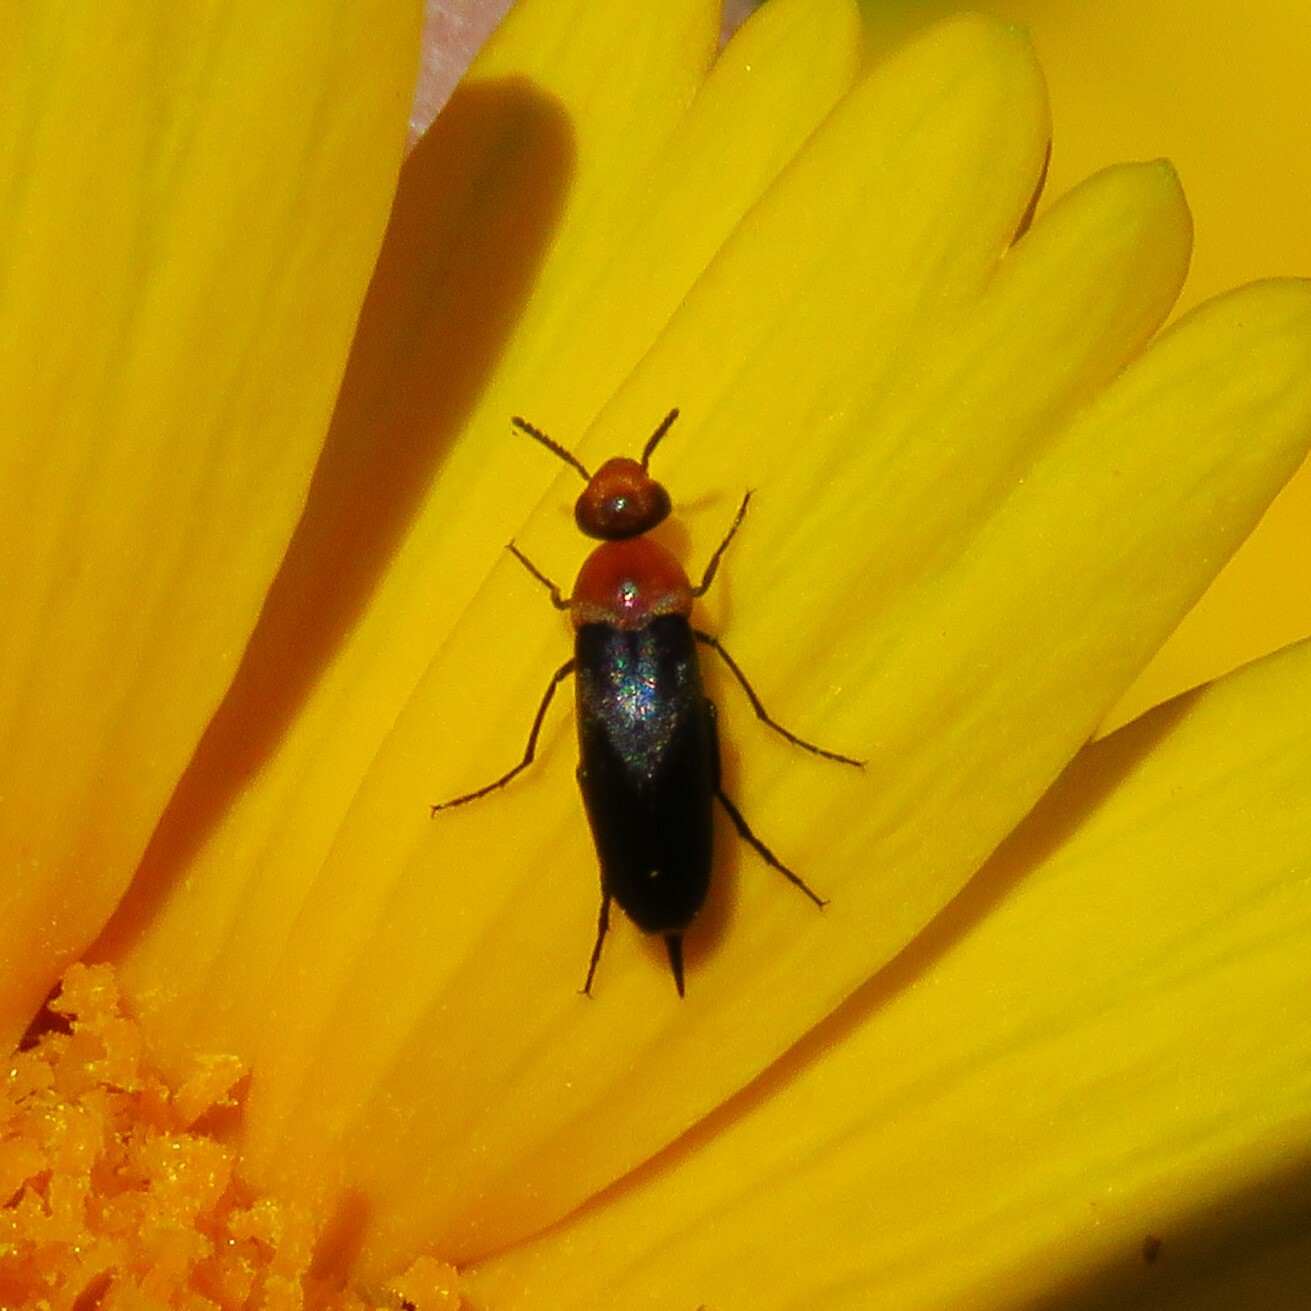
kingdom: Animalia
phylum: Arthropoda
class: Insecta
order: Coleoptera
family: Mordellidae
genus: Mordellistena
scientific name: Mordellistena cervicalis
